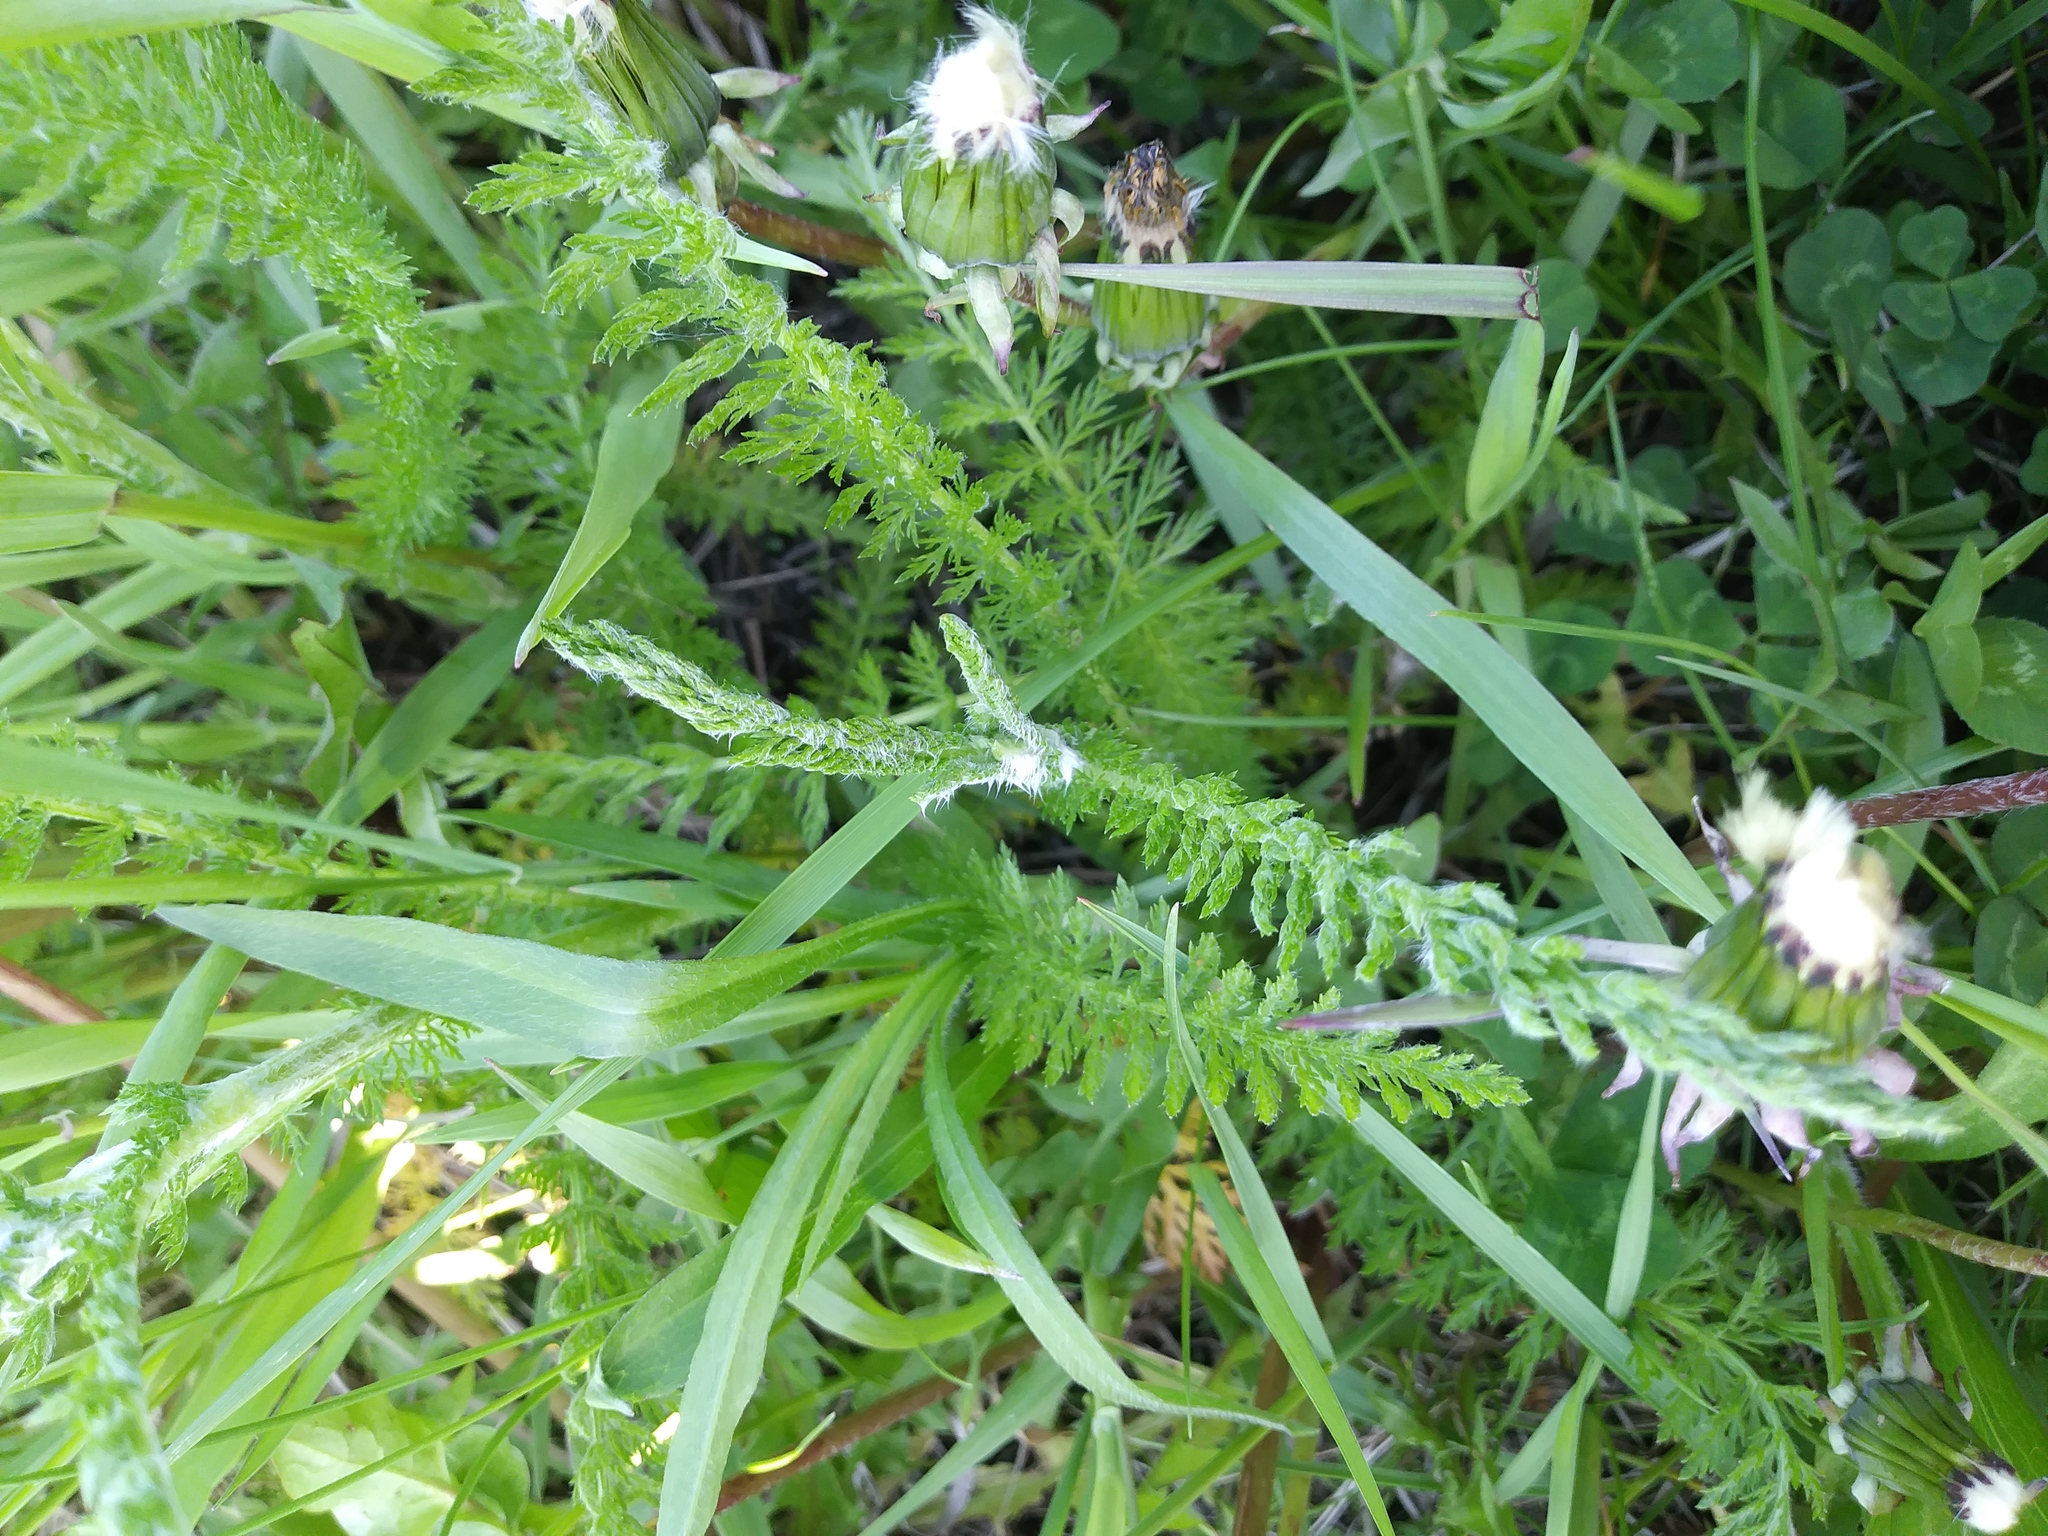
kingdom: Plantae
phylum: Tracheophyta
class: Magnoliopsida
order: Asterales
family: Asteraceae
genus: Achillea
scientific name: Achillea millefolium
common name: Yarrow
